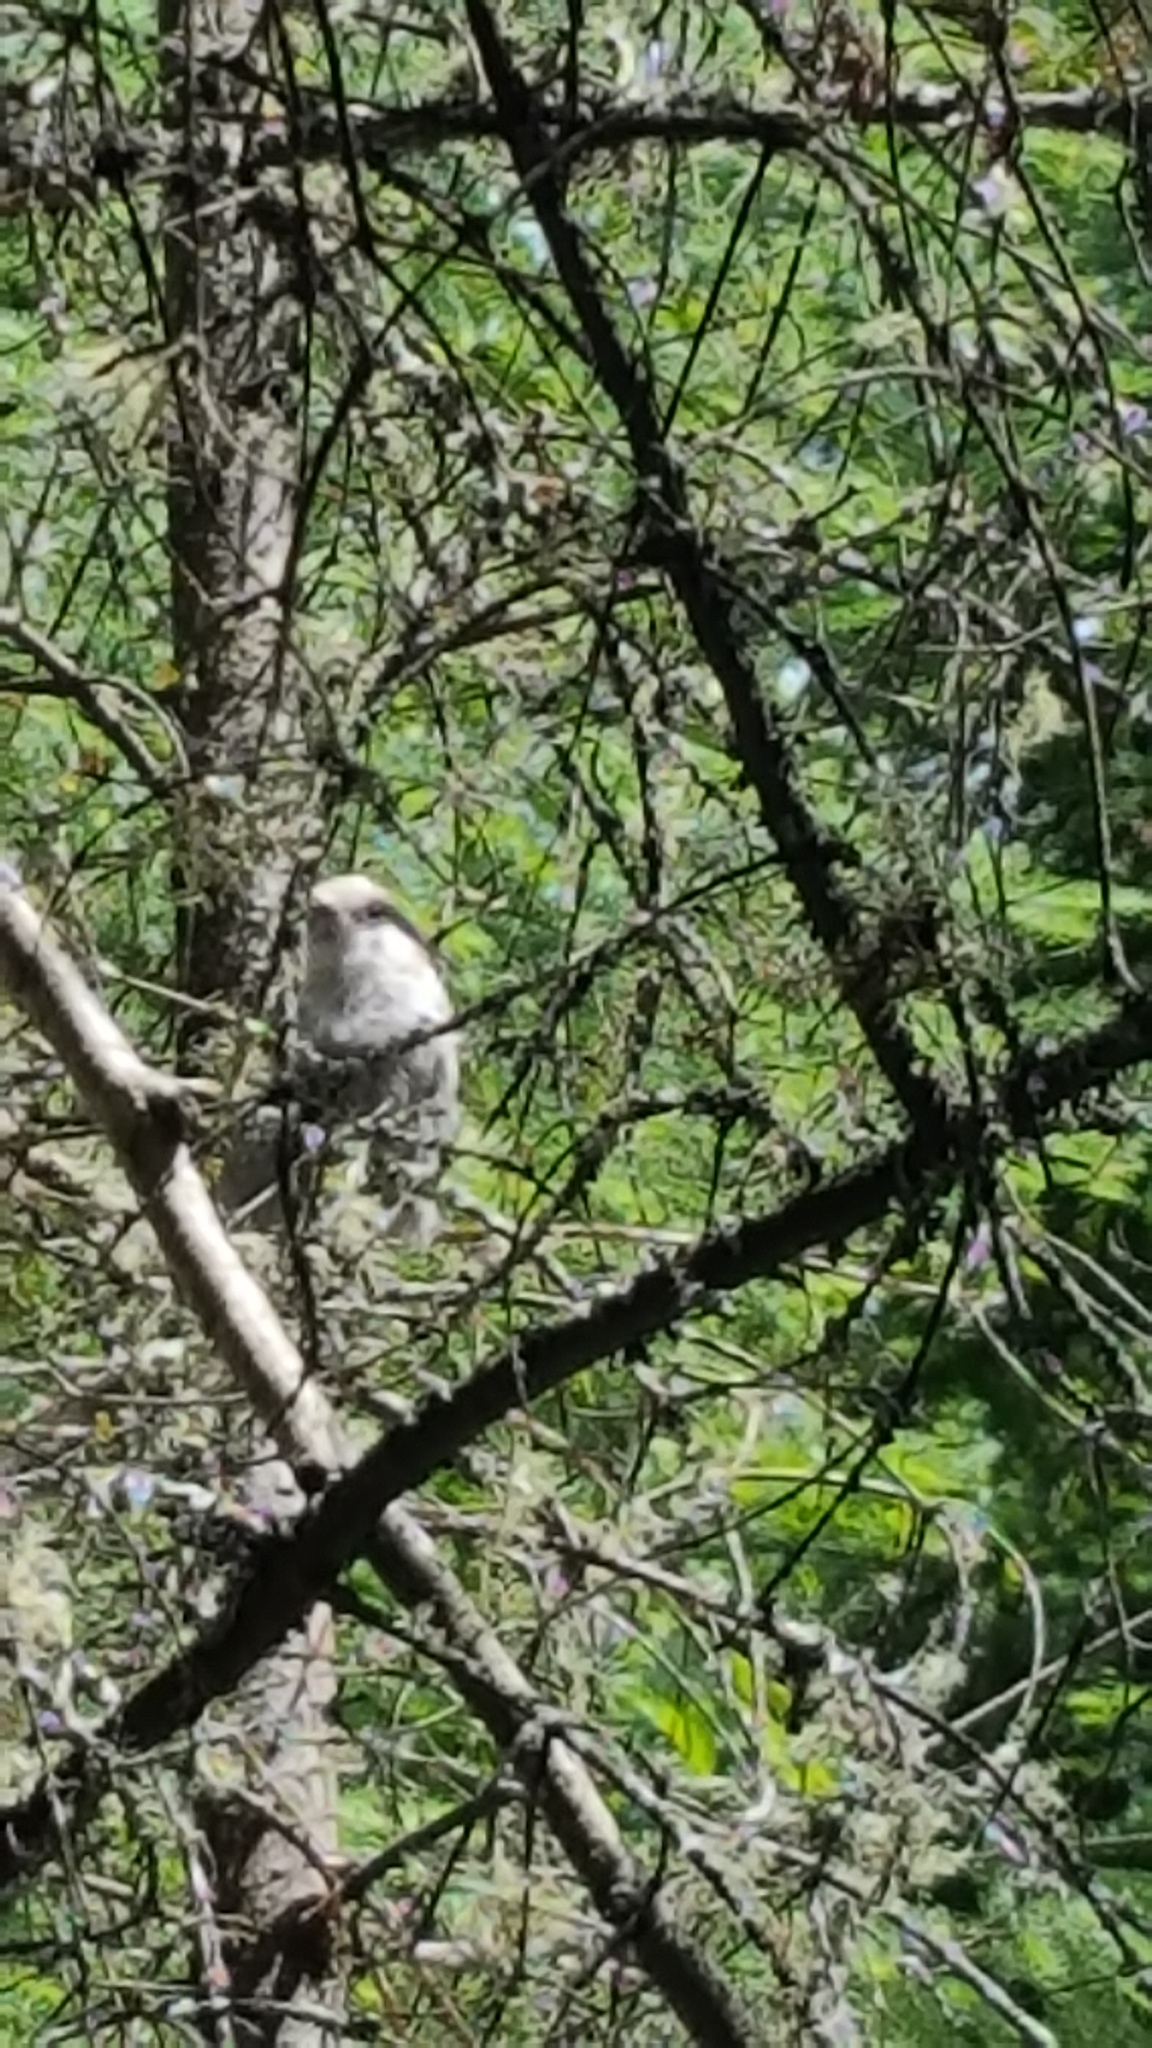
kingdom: Animalia
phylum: Chordata
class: Aves
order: Passeriformes
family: Corvidae
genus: Perisoreus
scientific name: Perisoreus canadensis
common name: Gray jay
